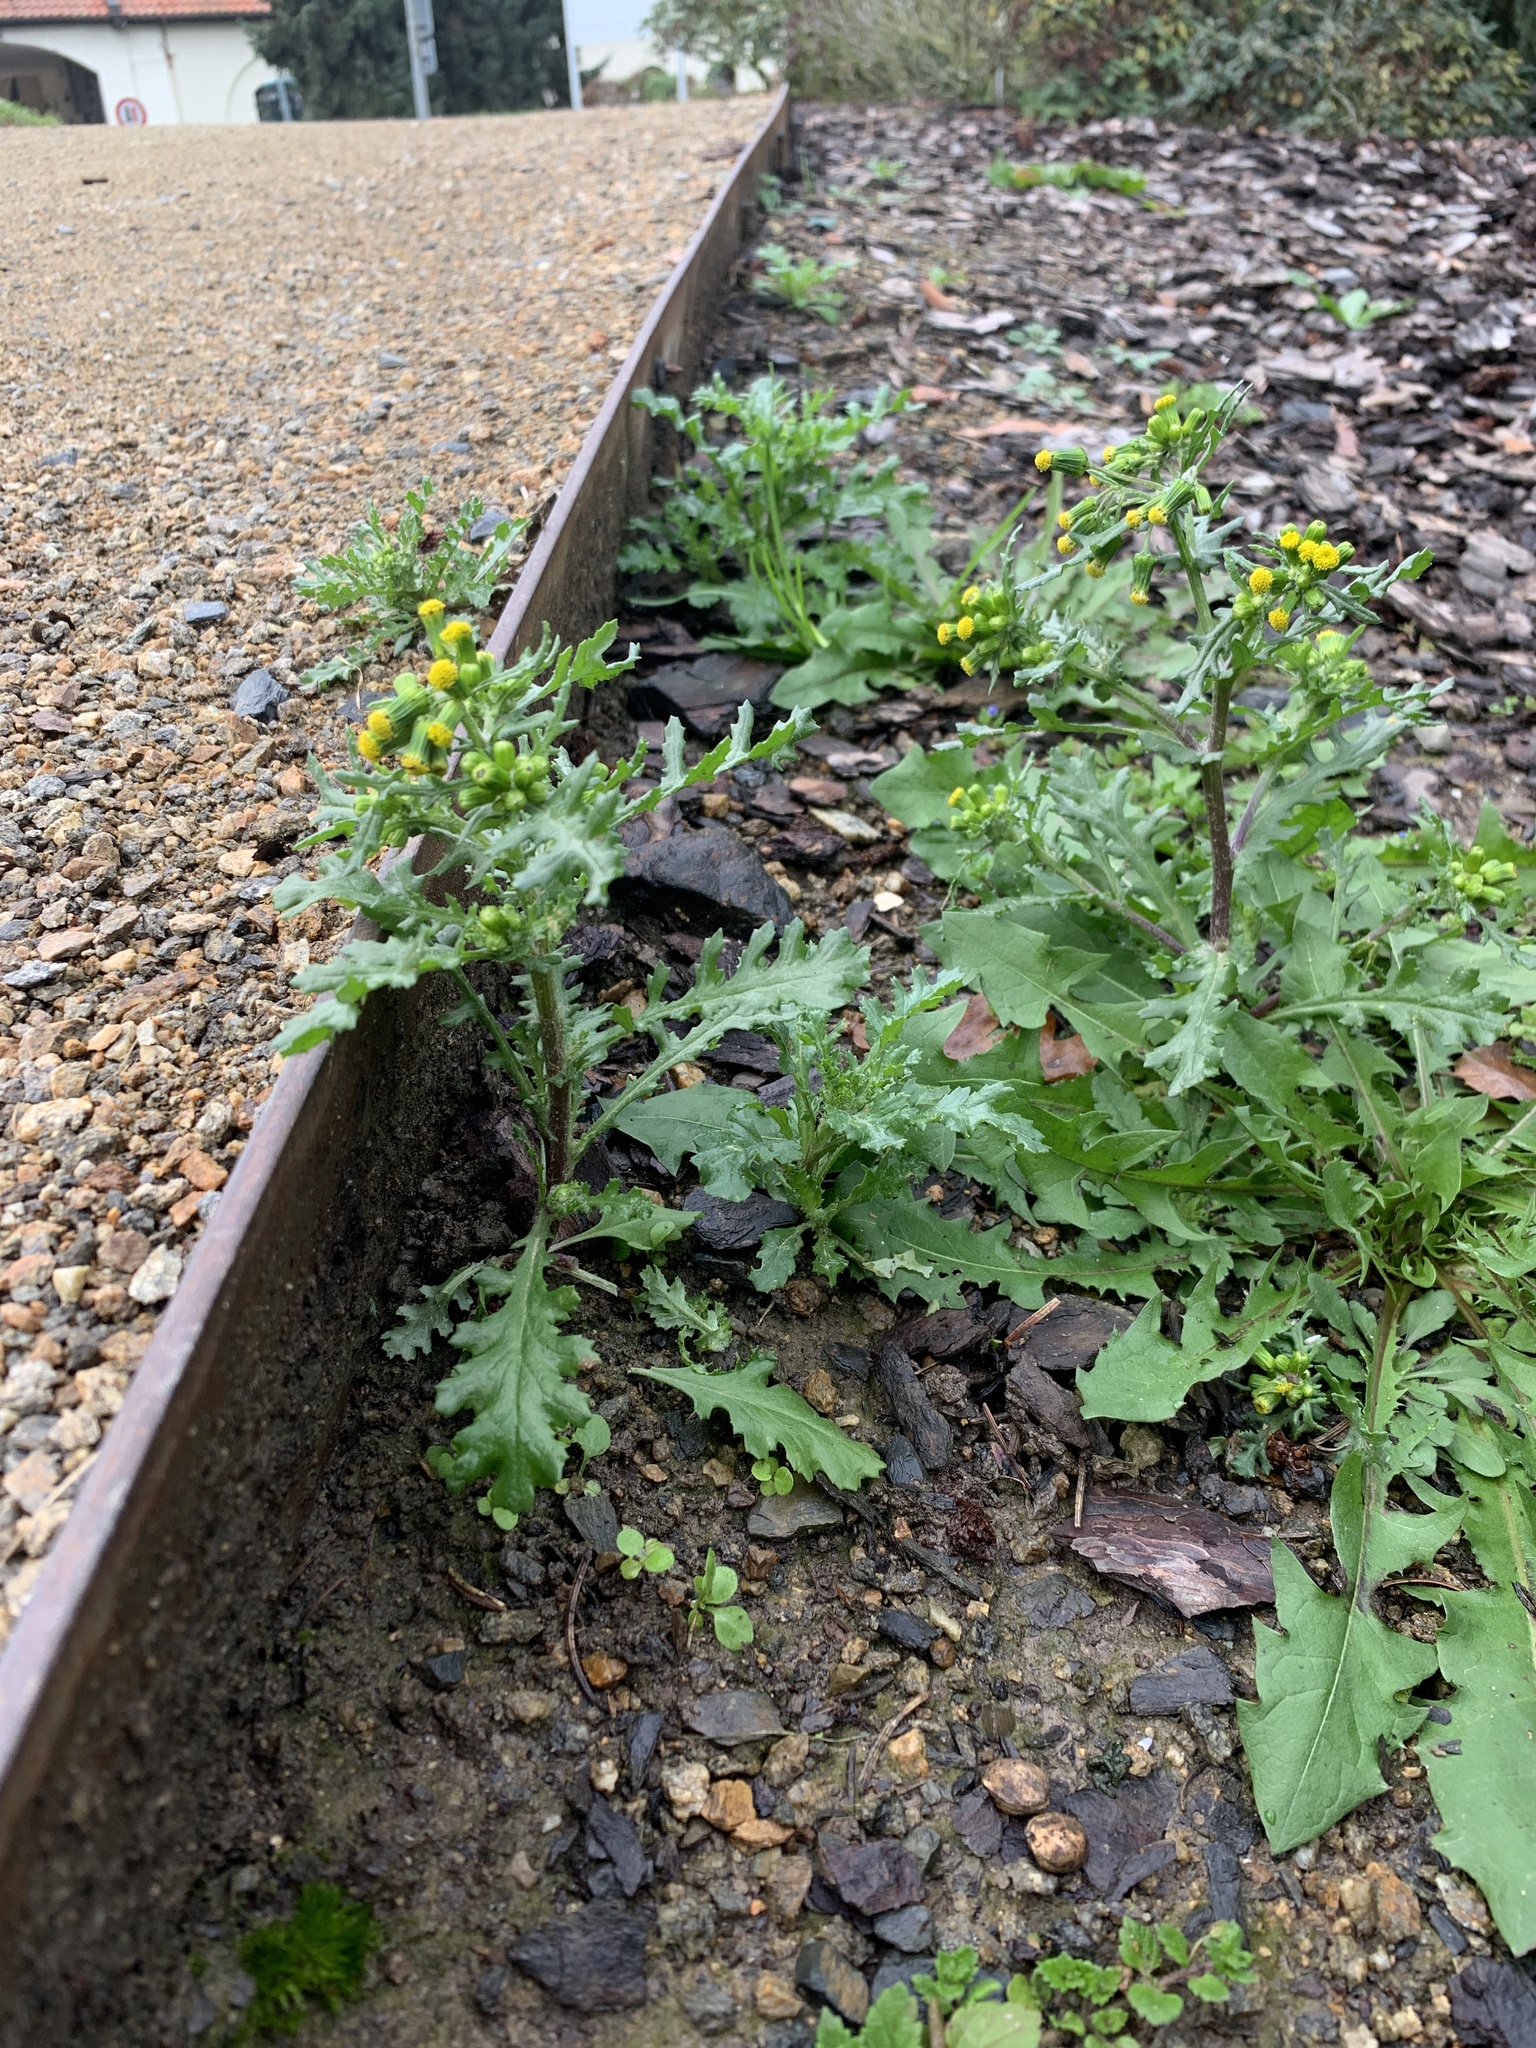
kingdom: Plantae
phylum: Tracheophyta
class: Magnoliopsida
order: Asterales
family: Asteraceae
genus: Senecio
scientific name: Senecio vulgaris
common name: Old-man-in-the-spring
